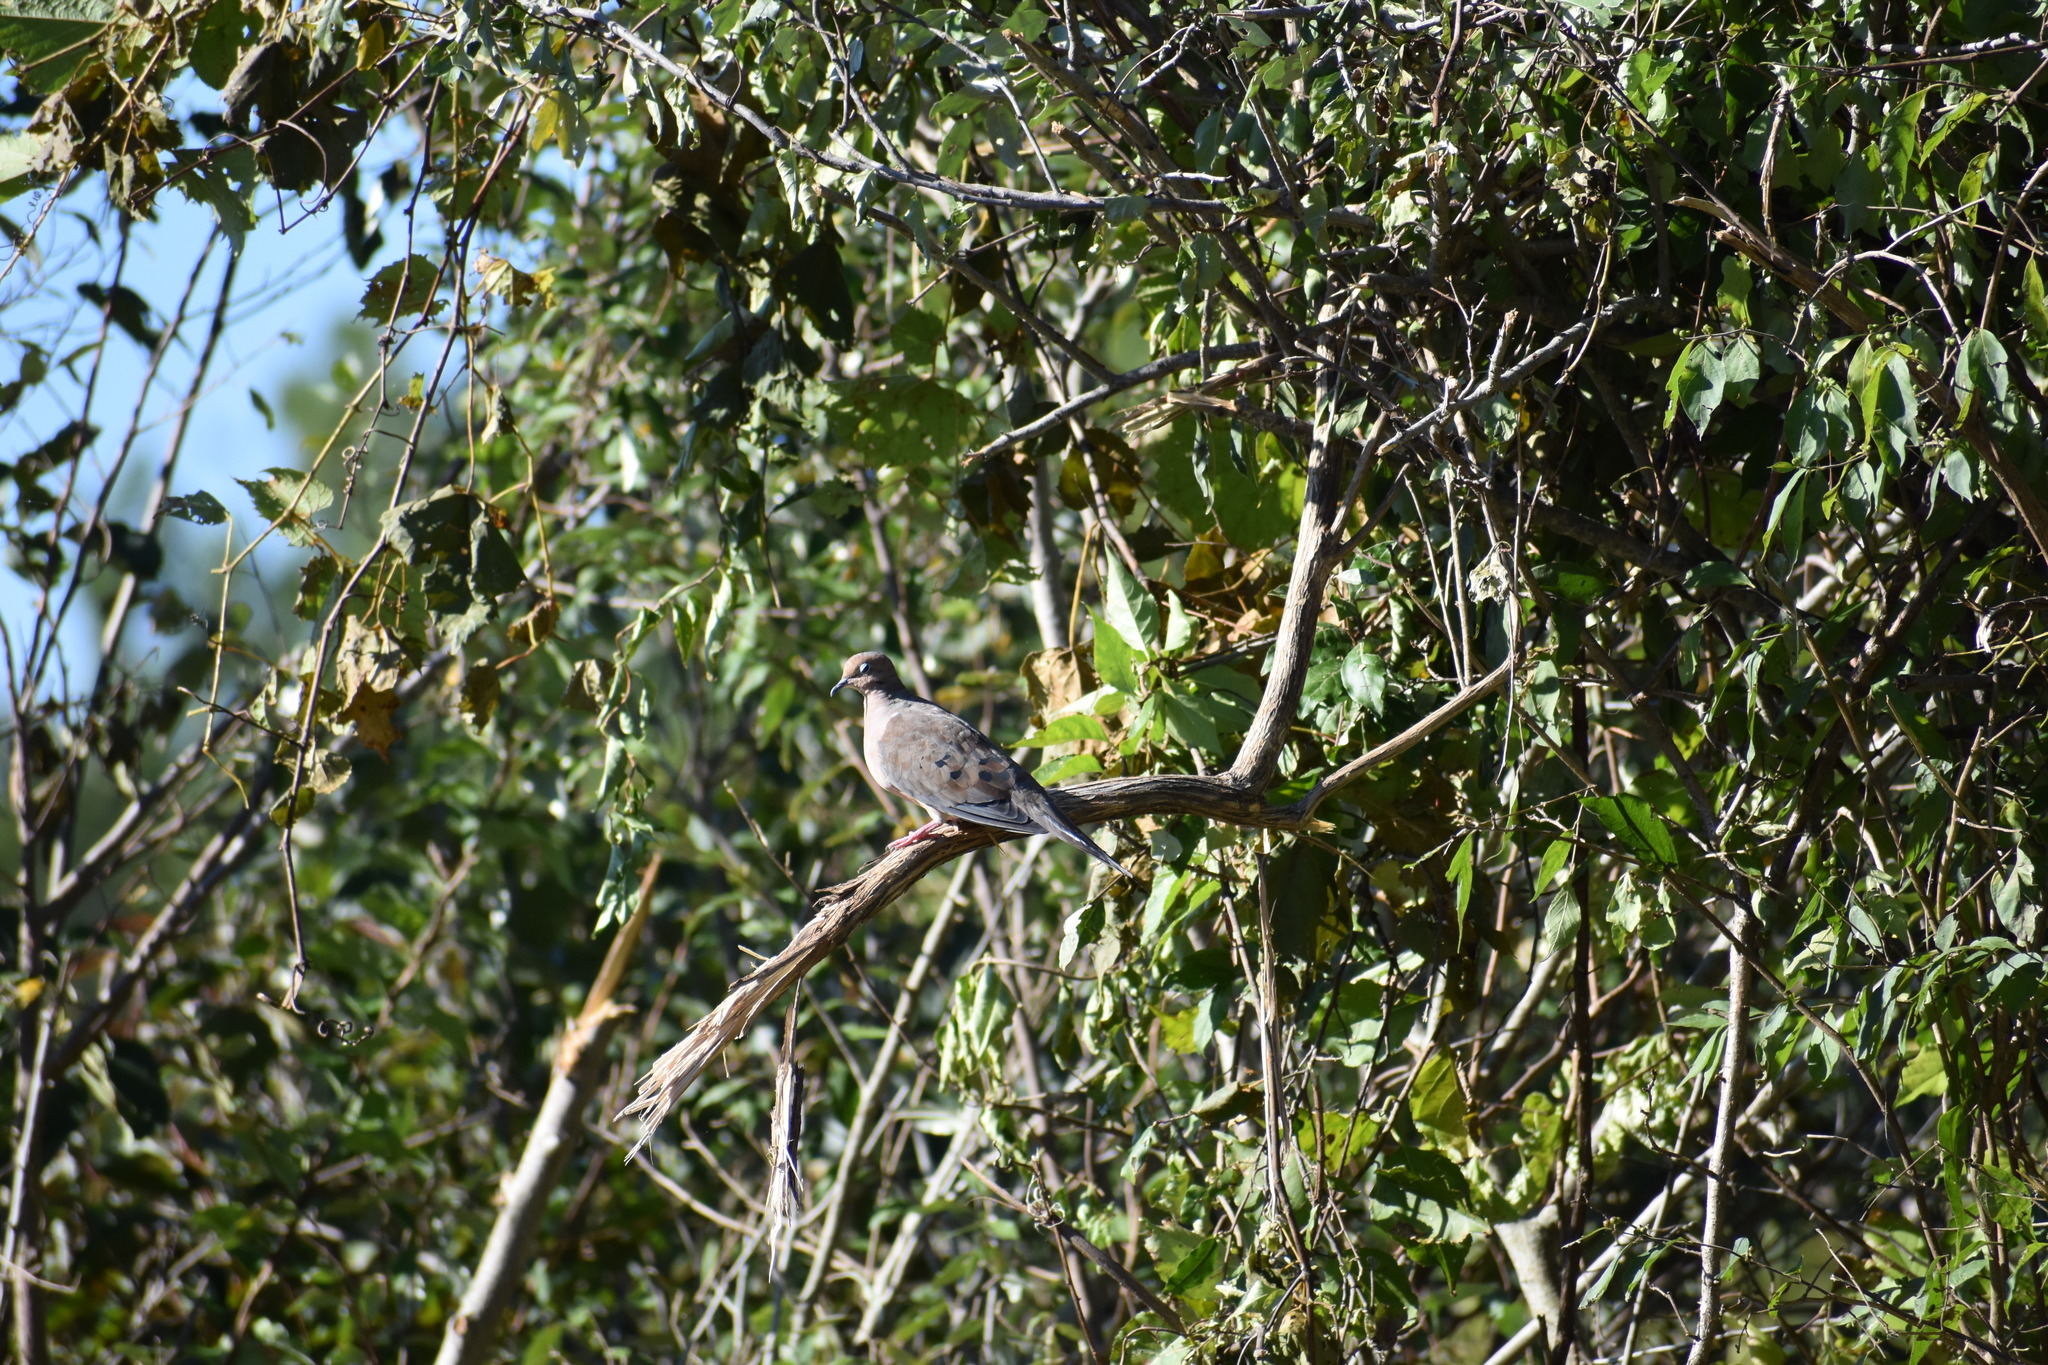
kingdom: Animalia
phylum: Chordata
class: Aves
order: Columbiformes
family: Columbidae
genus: Zenaida
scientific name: Zenaida macroura
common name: Mourning dove
